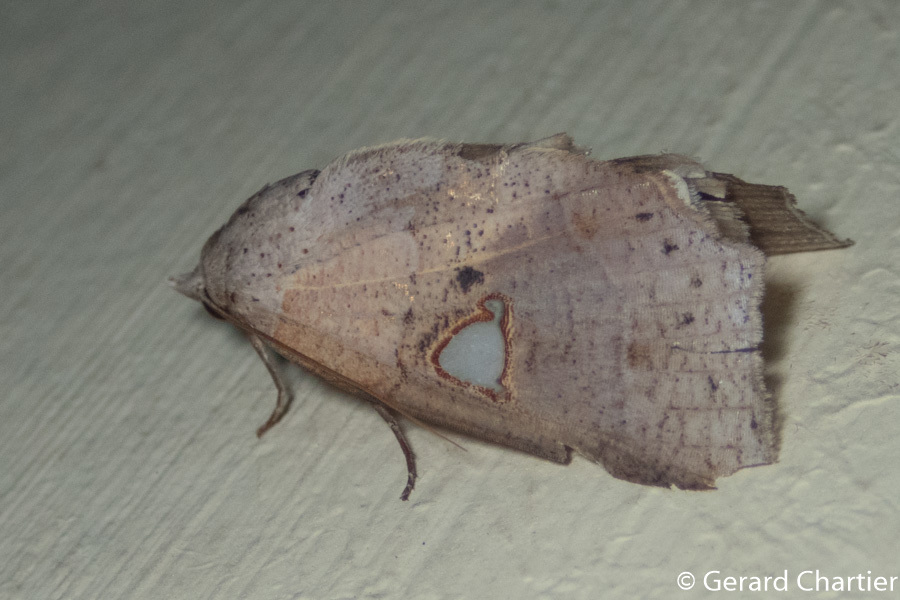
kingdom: Animalia
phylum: Arthropoda
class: Insecta
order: Lepidoptera
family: Nolidae
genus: Pterogonia
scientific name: Pterogonia episcopalis
